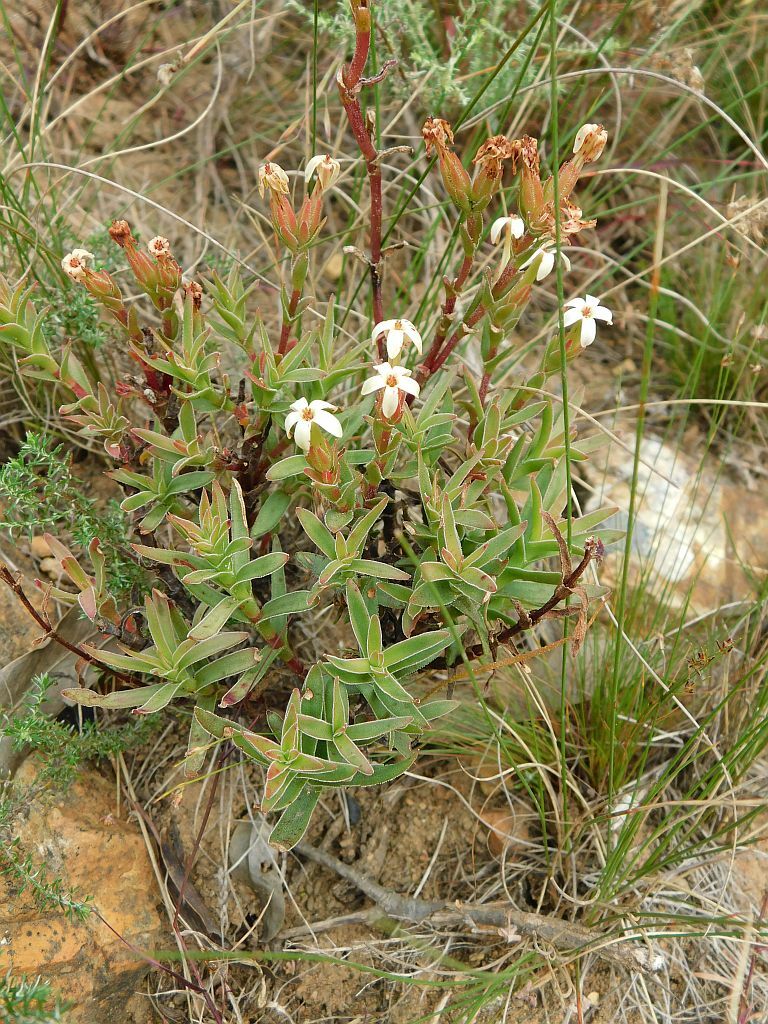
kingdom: Plantae
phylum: Tracheophyta
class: Magnoliopsida
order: Saxifragales
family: Crassulaceae
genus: Crassula
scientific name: Crassula obtusa
